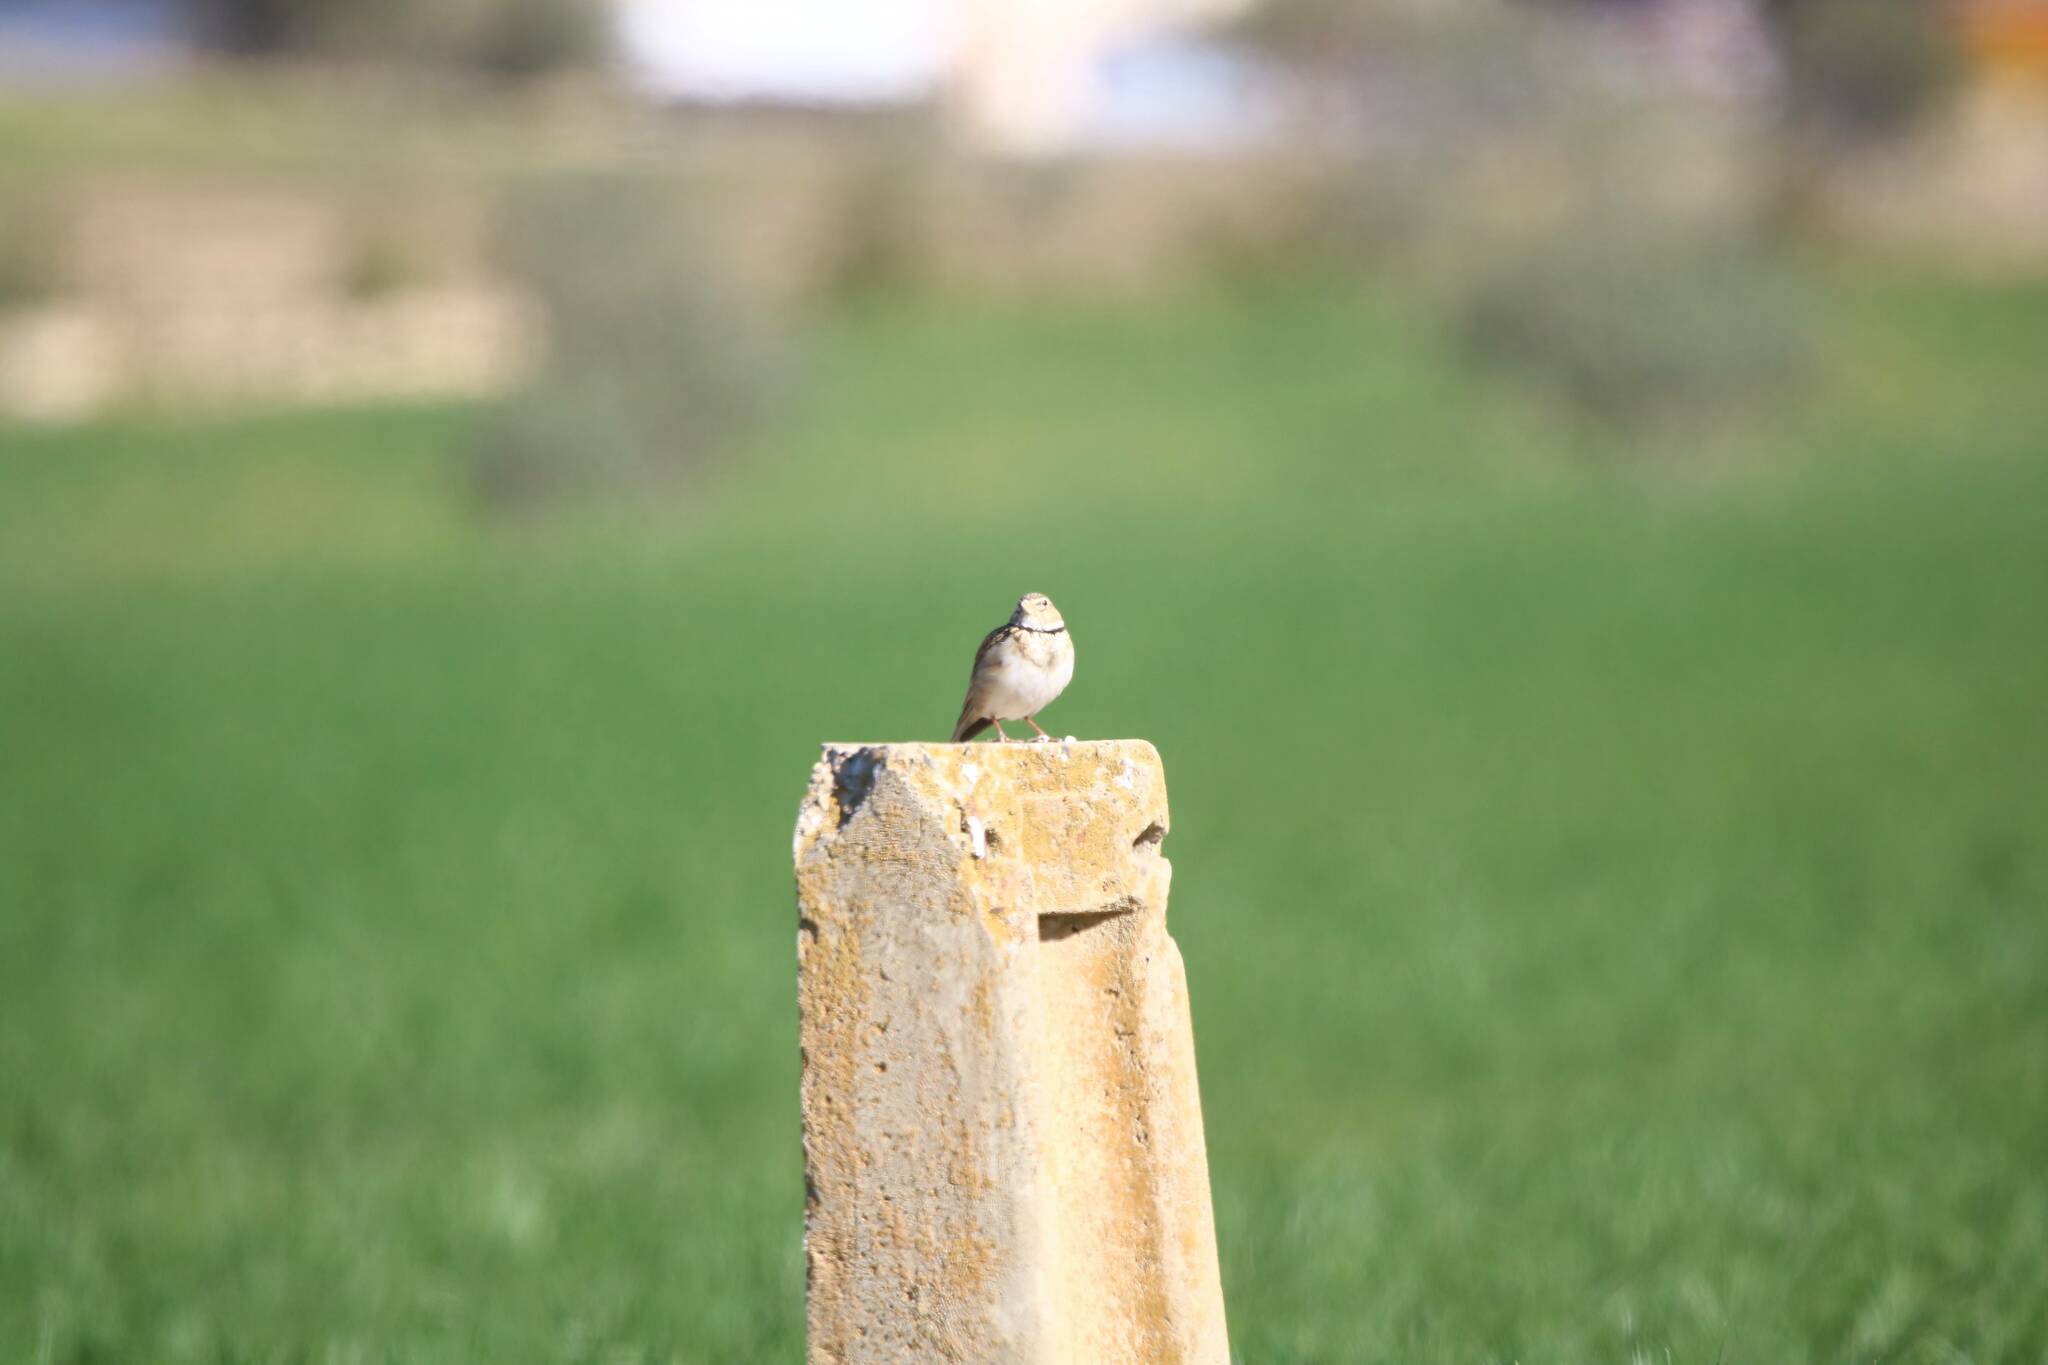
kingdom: Animalia
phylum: Chordata
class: Aves
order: Passeriformes
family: Alaudidae
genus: Melanocorypha
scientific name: Melanocorypha calandra
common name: Calandra lark
